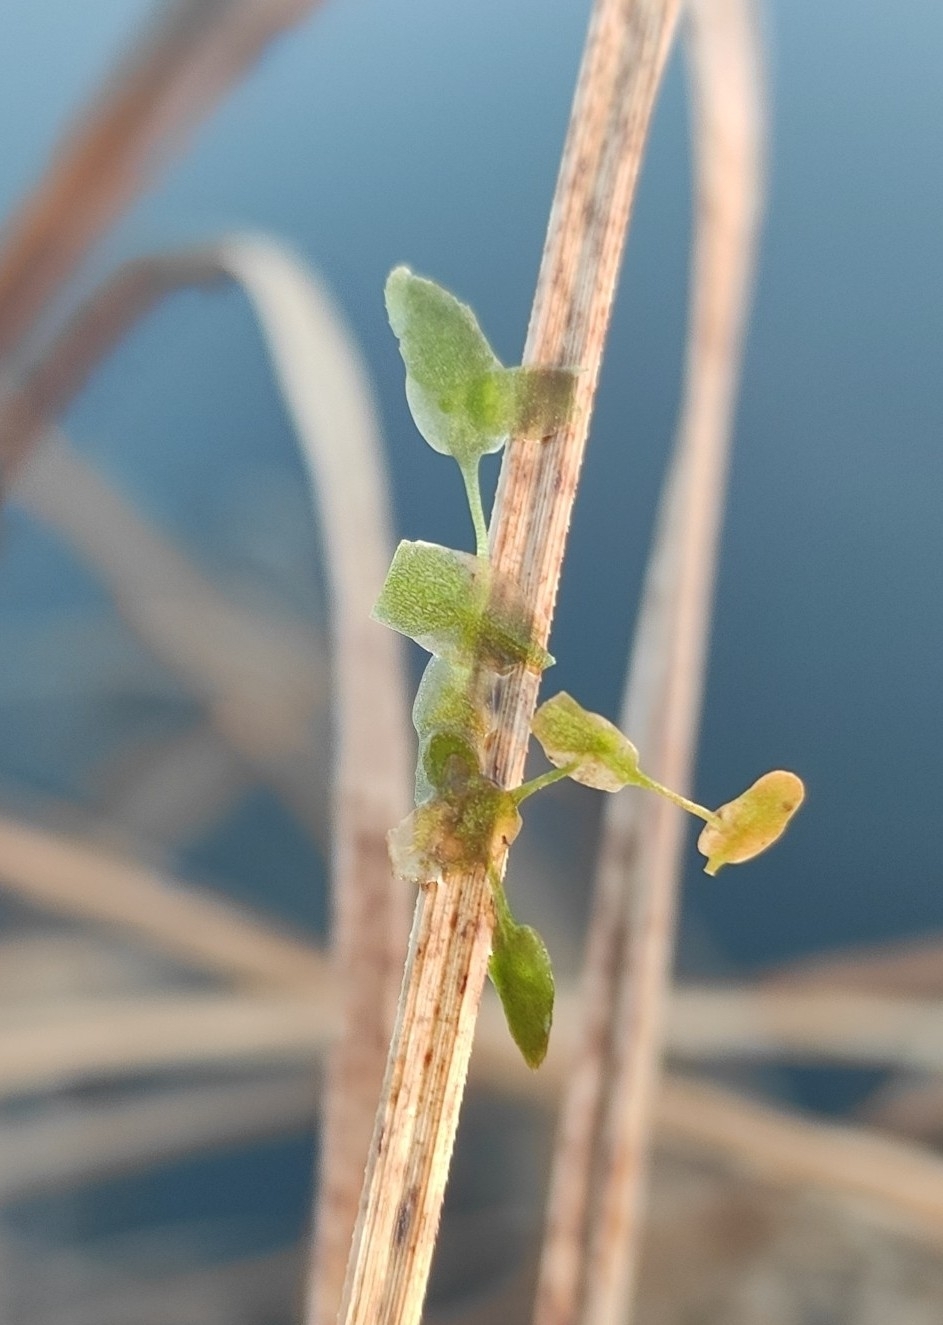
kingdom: Plantae
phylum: Tracheophyta
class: Liliopsida
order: Alismatales
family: Araceae
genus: Lemna
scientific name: Lemna trisulca
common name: Ivy-leaved duckweed
